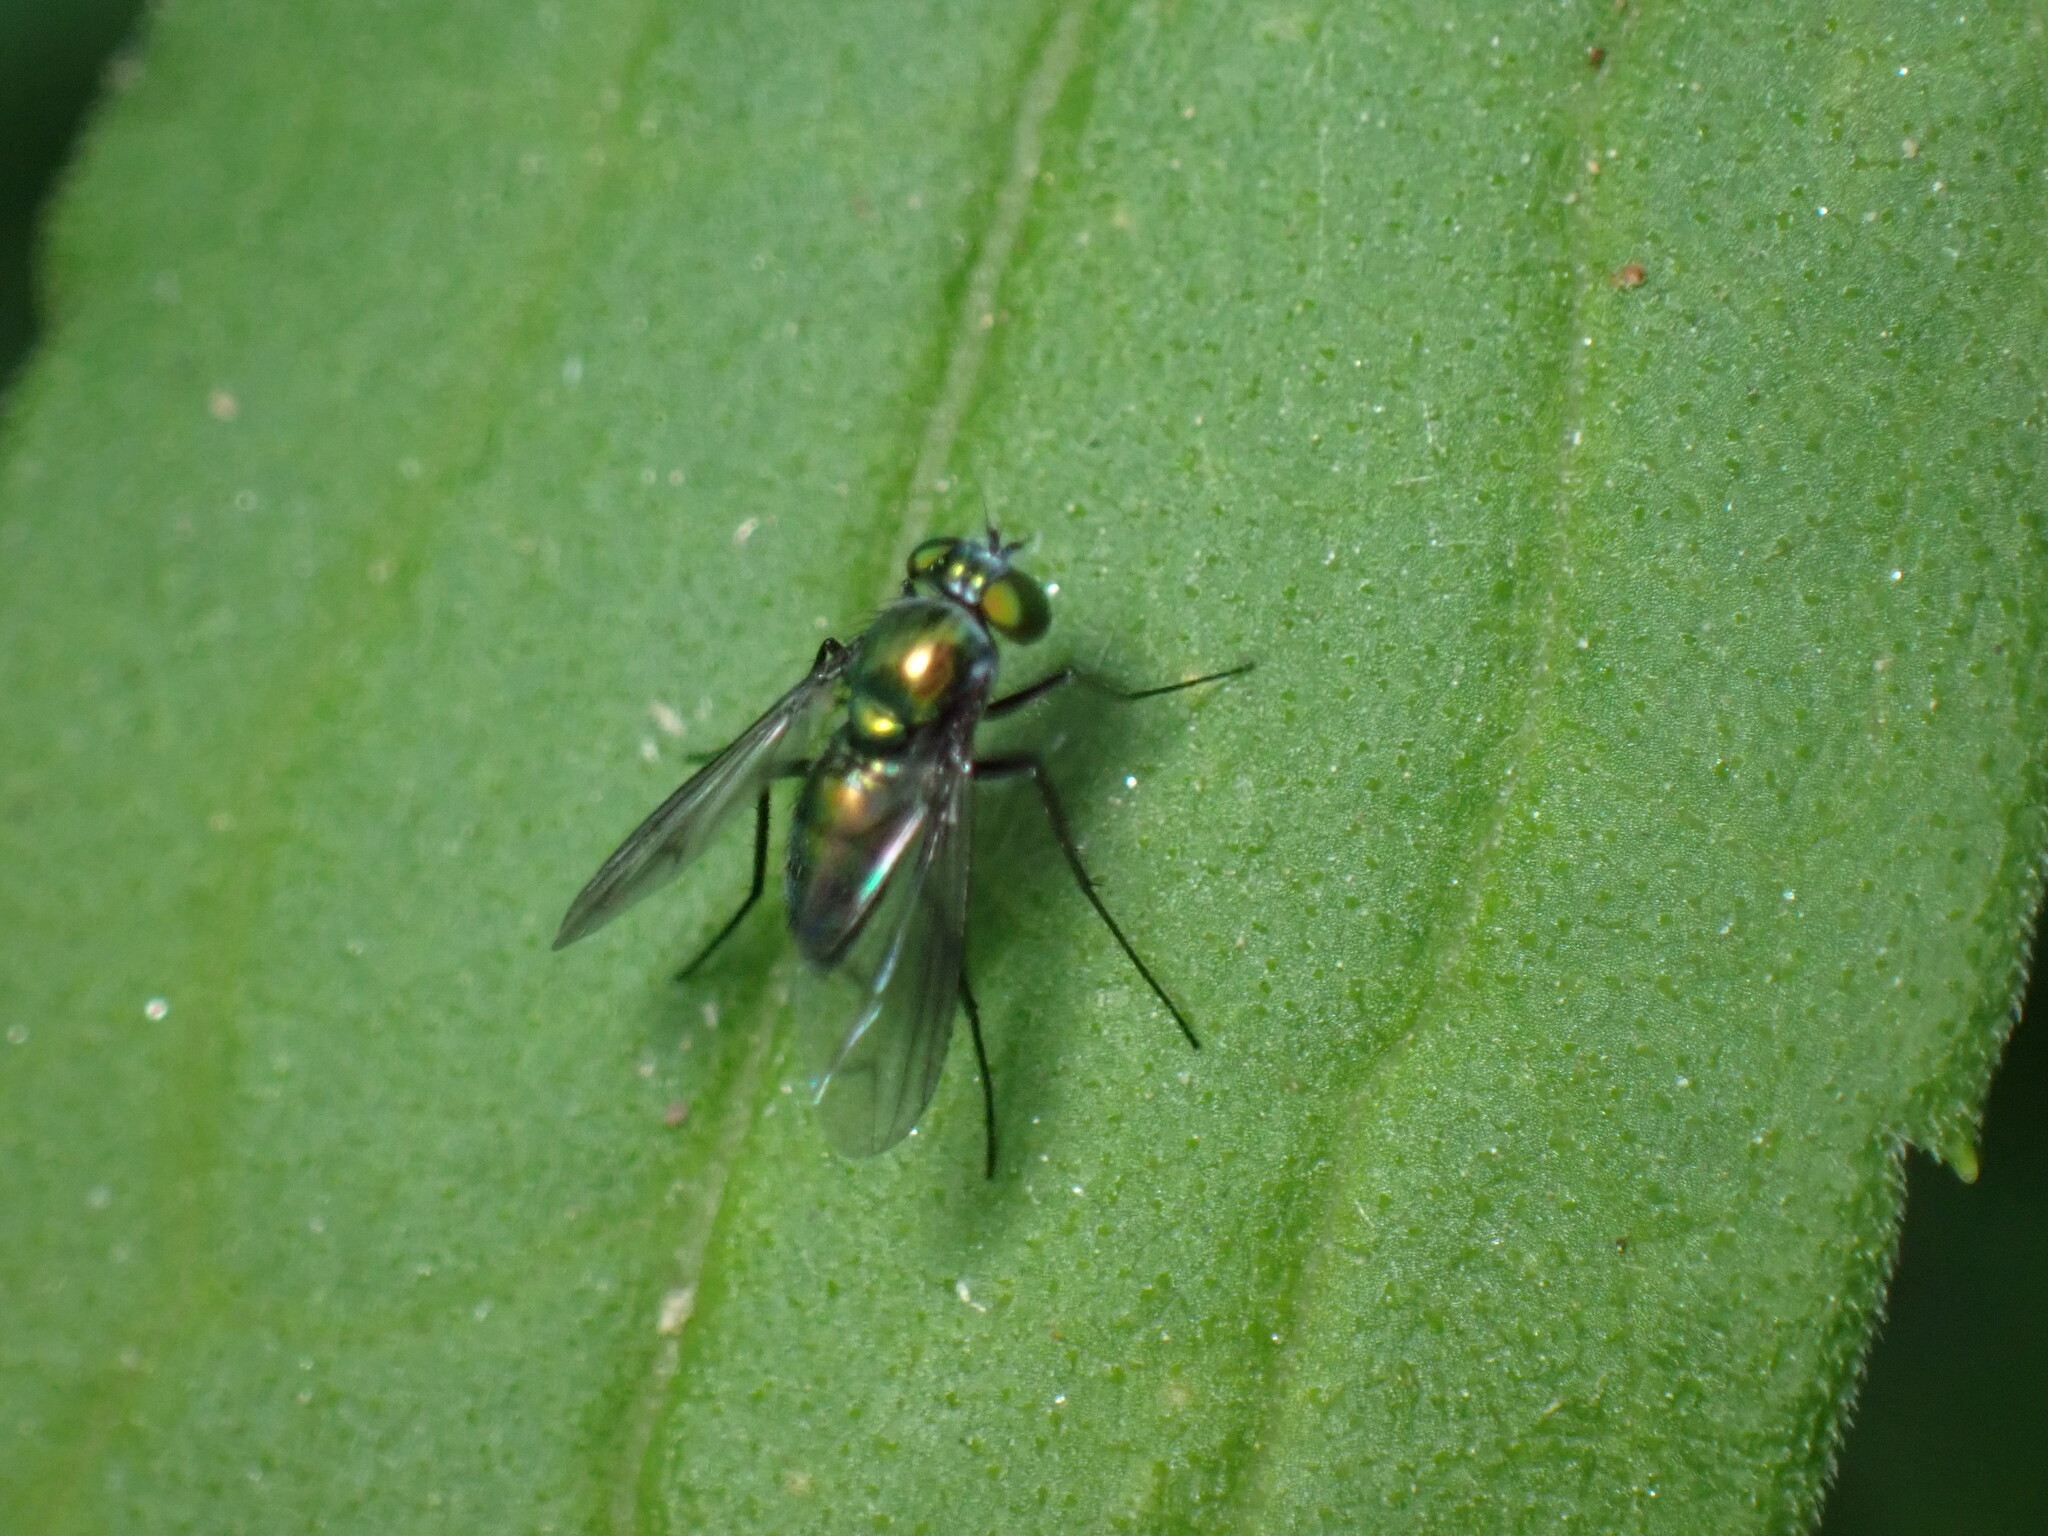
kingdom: Animalia
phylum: Arthropoda
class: Insecta
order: Diptera
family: Dolichopodidae
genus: Condylostylus
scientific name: Condylostylus patibulatus
